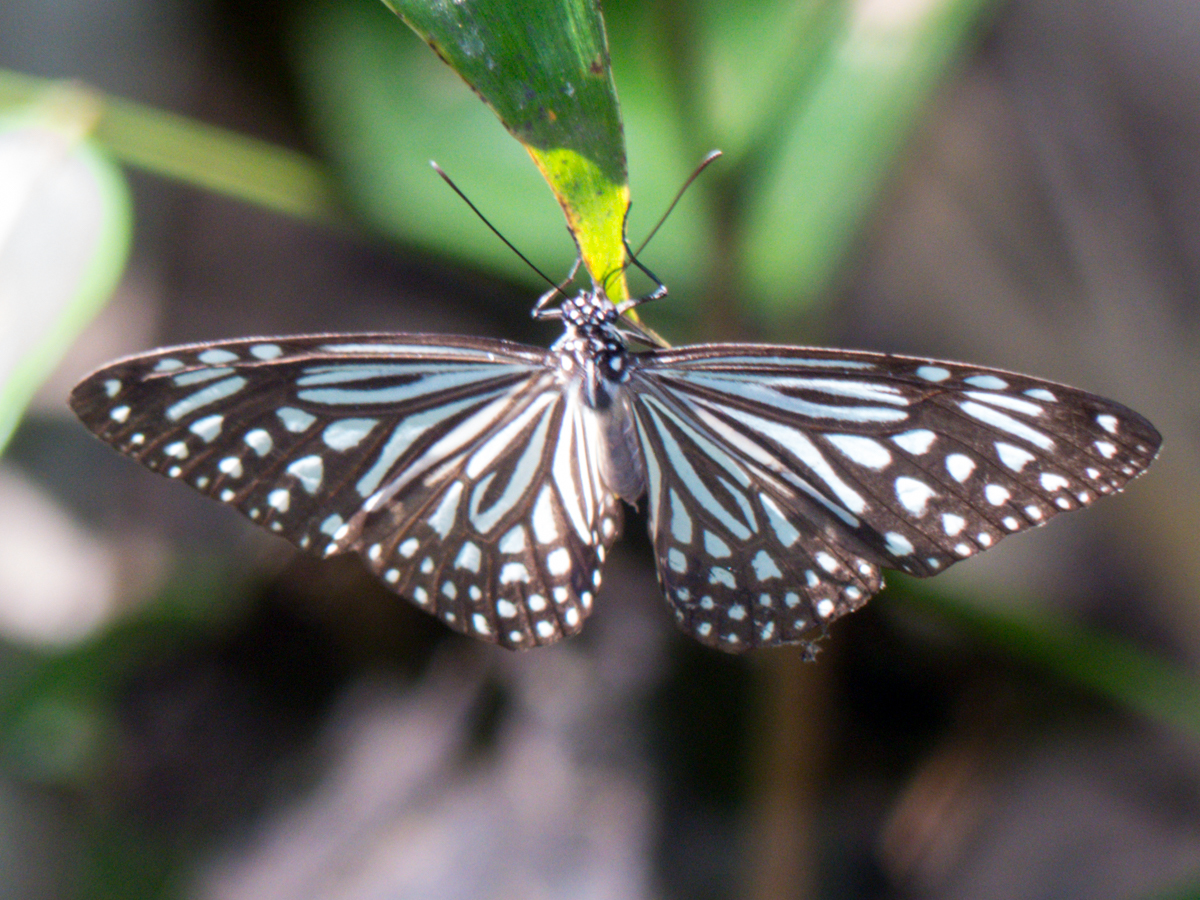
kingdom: Animalia
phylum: Arthropoda
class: Insecta
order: Lepidoptera
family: Nymphalidae
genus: Parantica
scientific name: Parantica agleoides
